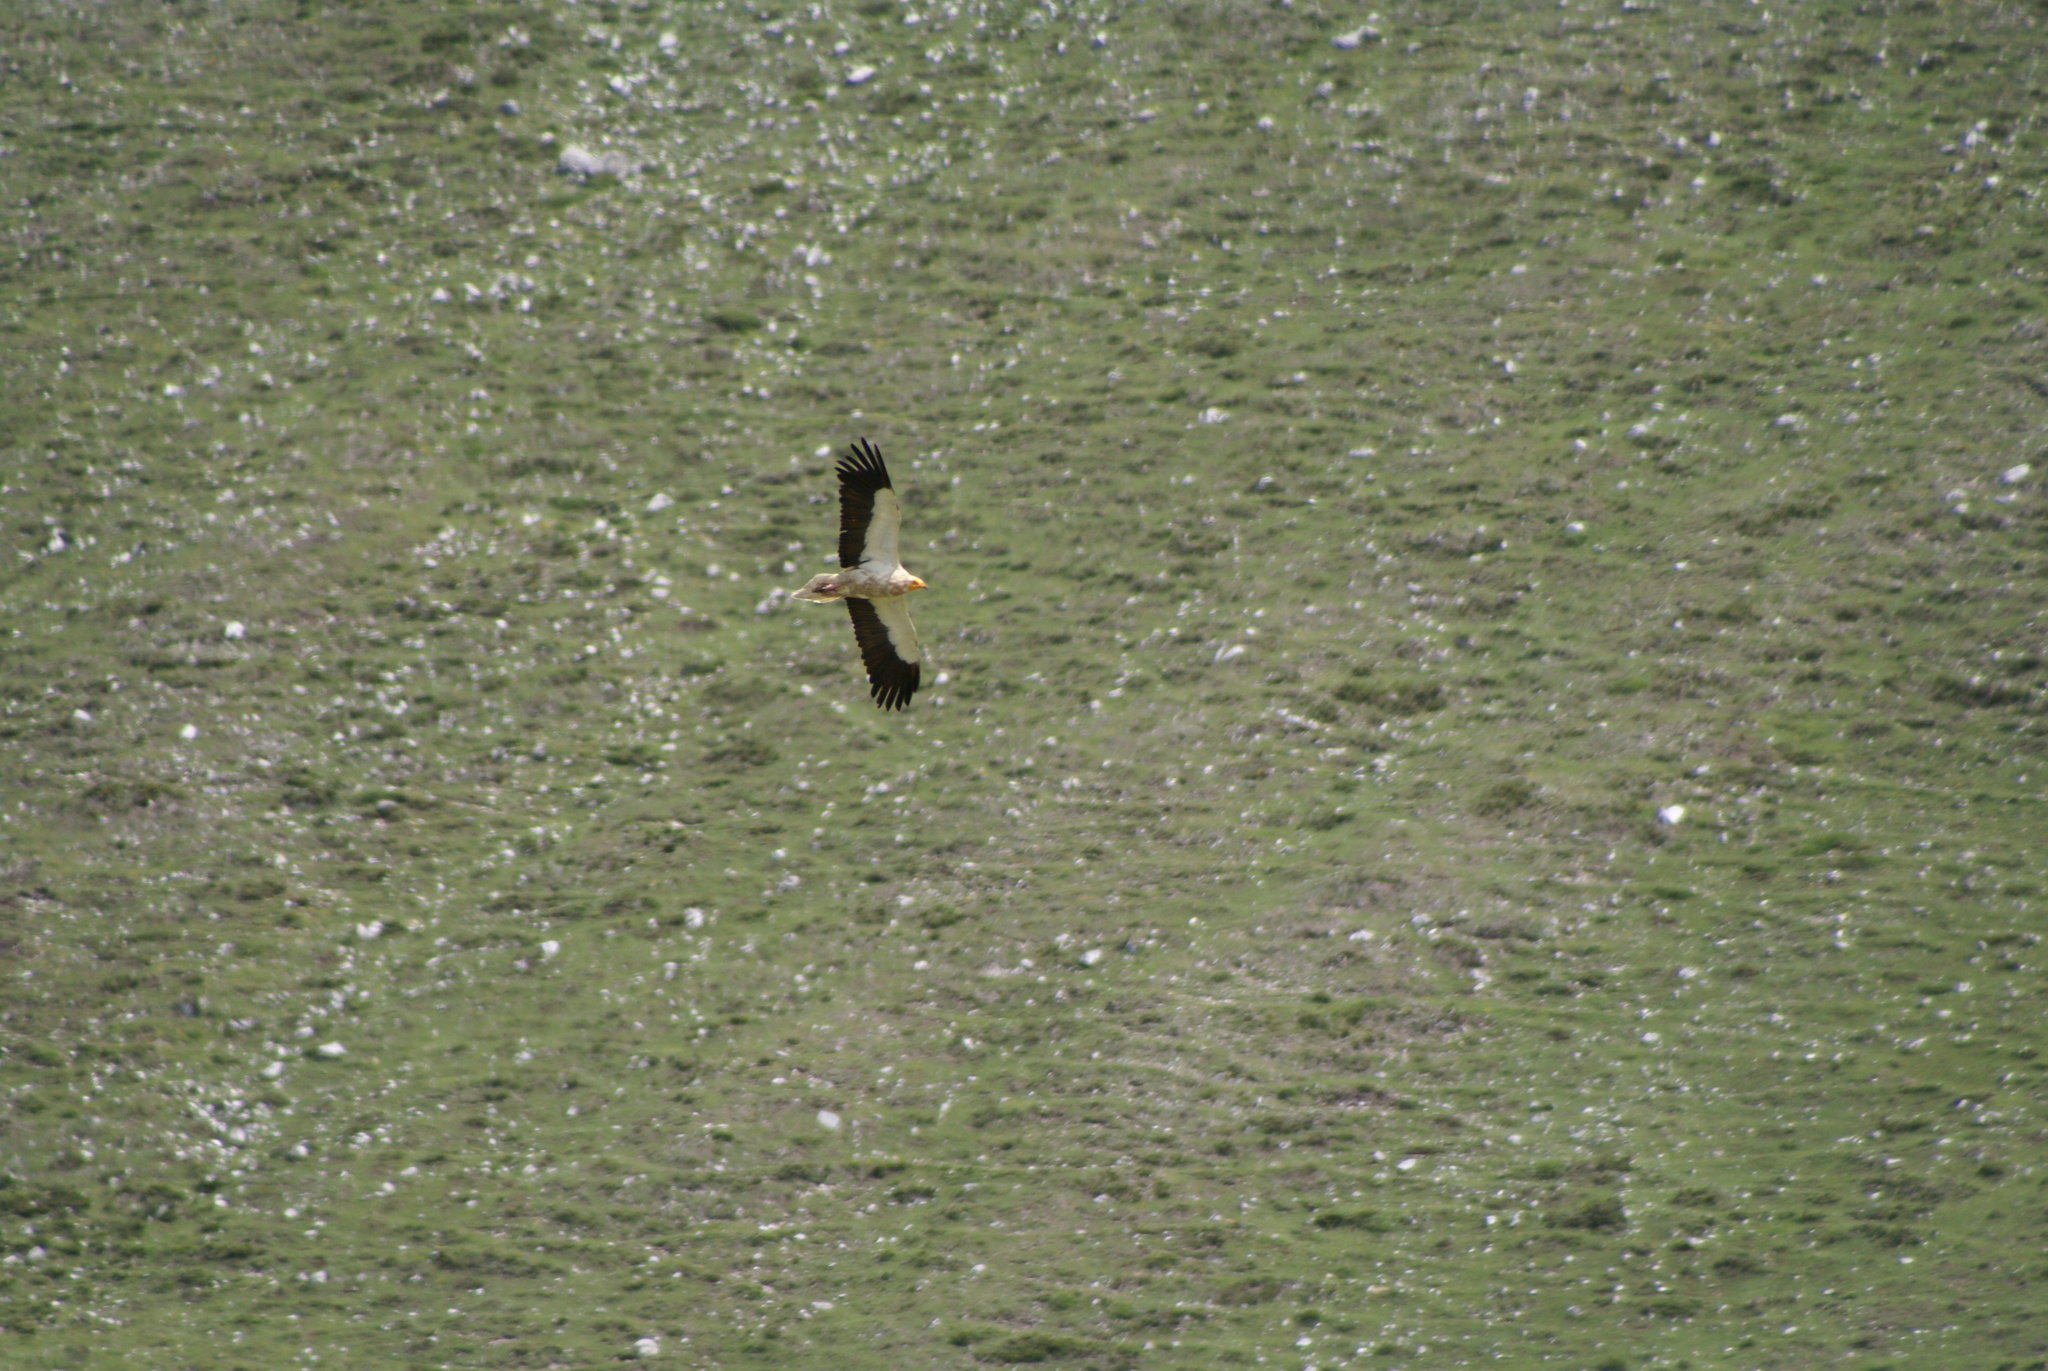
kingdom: Animalia
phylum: Chordata
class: Aves
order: Accipitriformes
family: Accipitridae
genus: Neophron
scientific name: Neophron percnopterus
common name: Egyptian vulture
